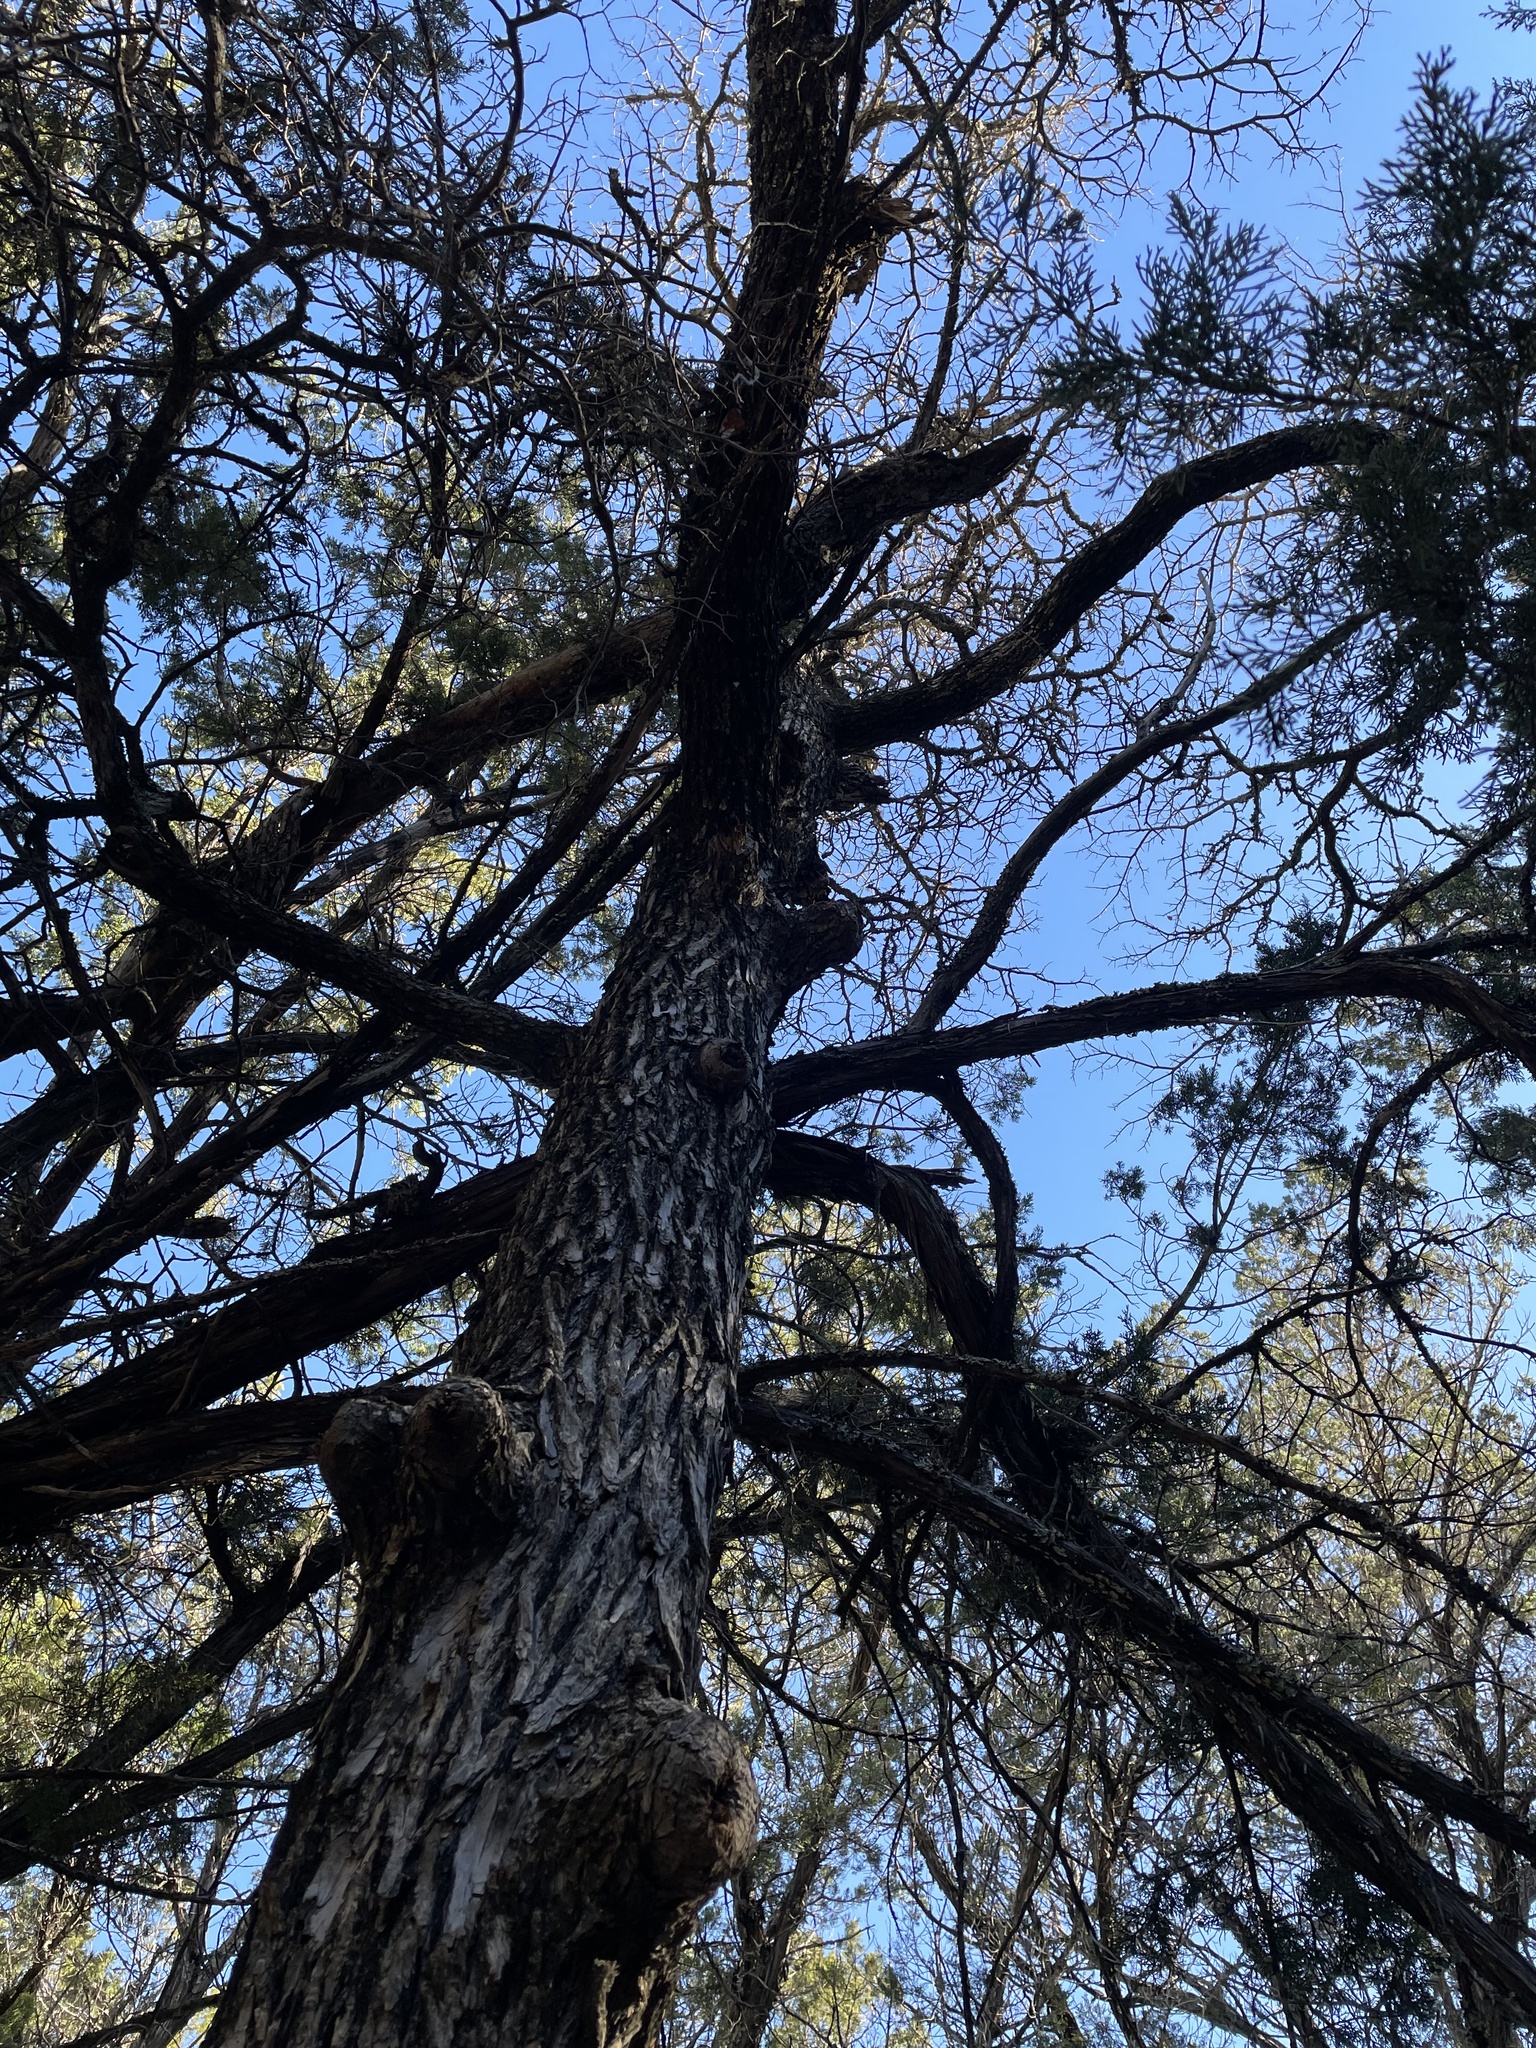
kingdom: Plantae
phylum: Tracheophyta
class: Magnoliopsida
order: Rosales
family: Ulmaceae
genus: Ulmus
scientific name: Ulmus crassifolia
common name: Basket elm
